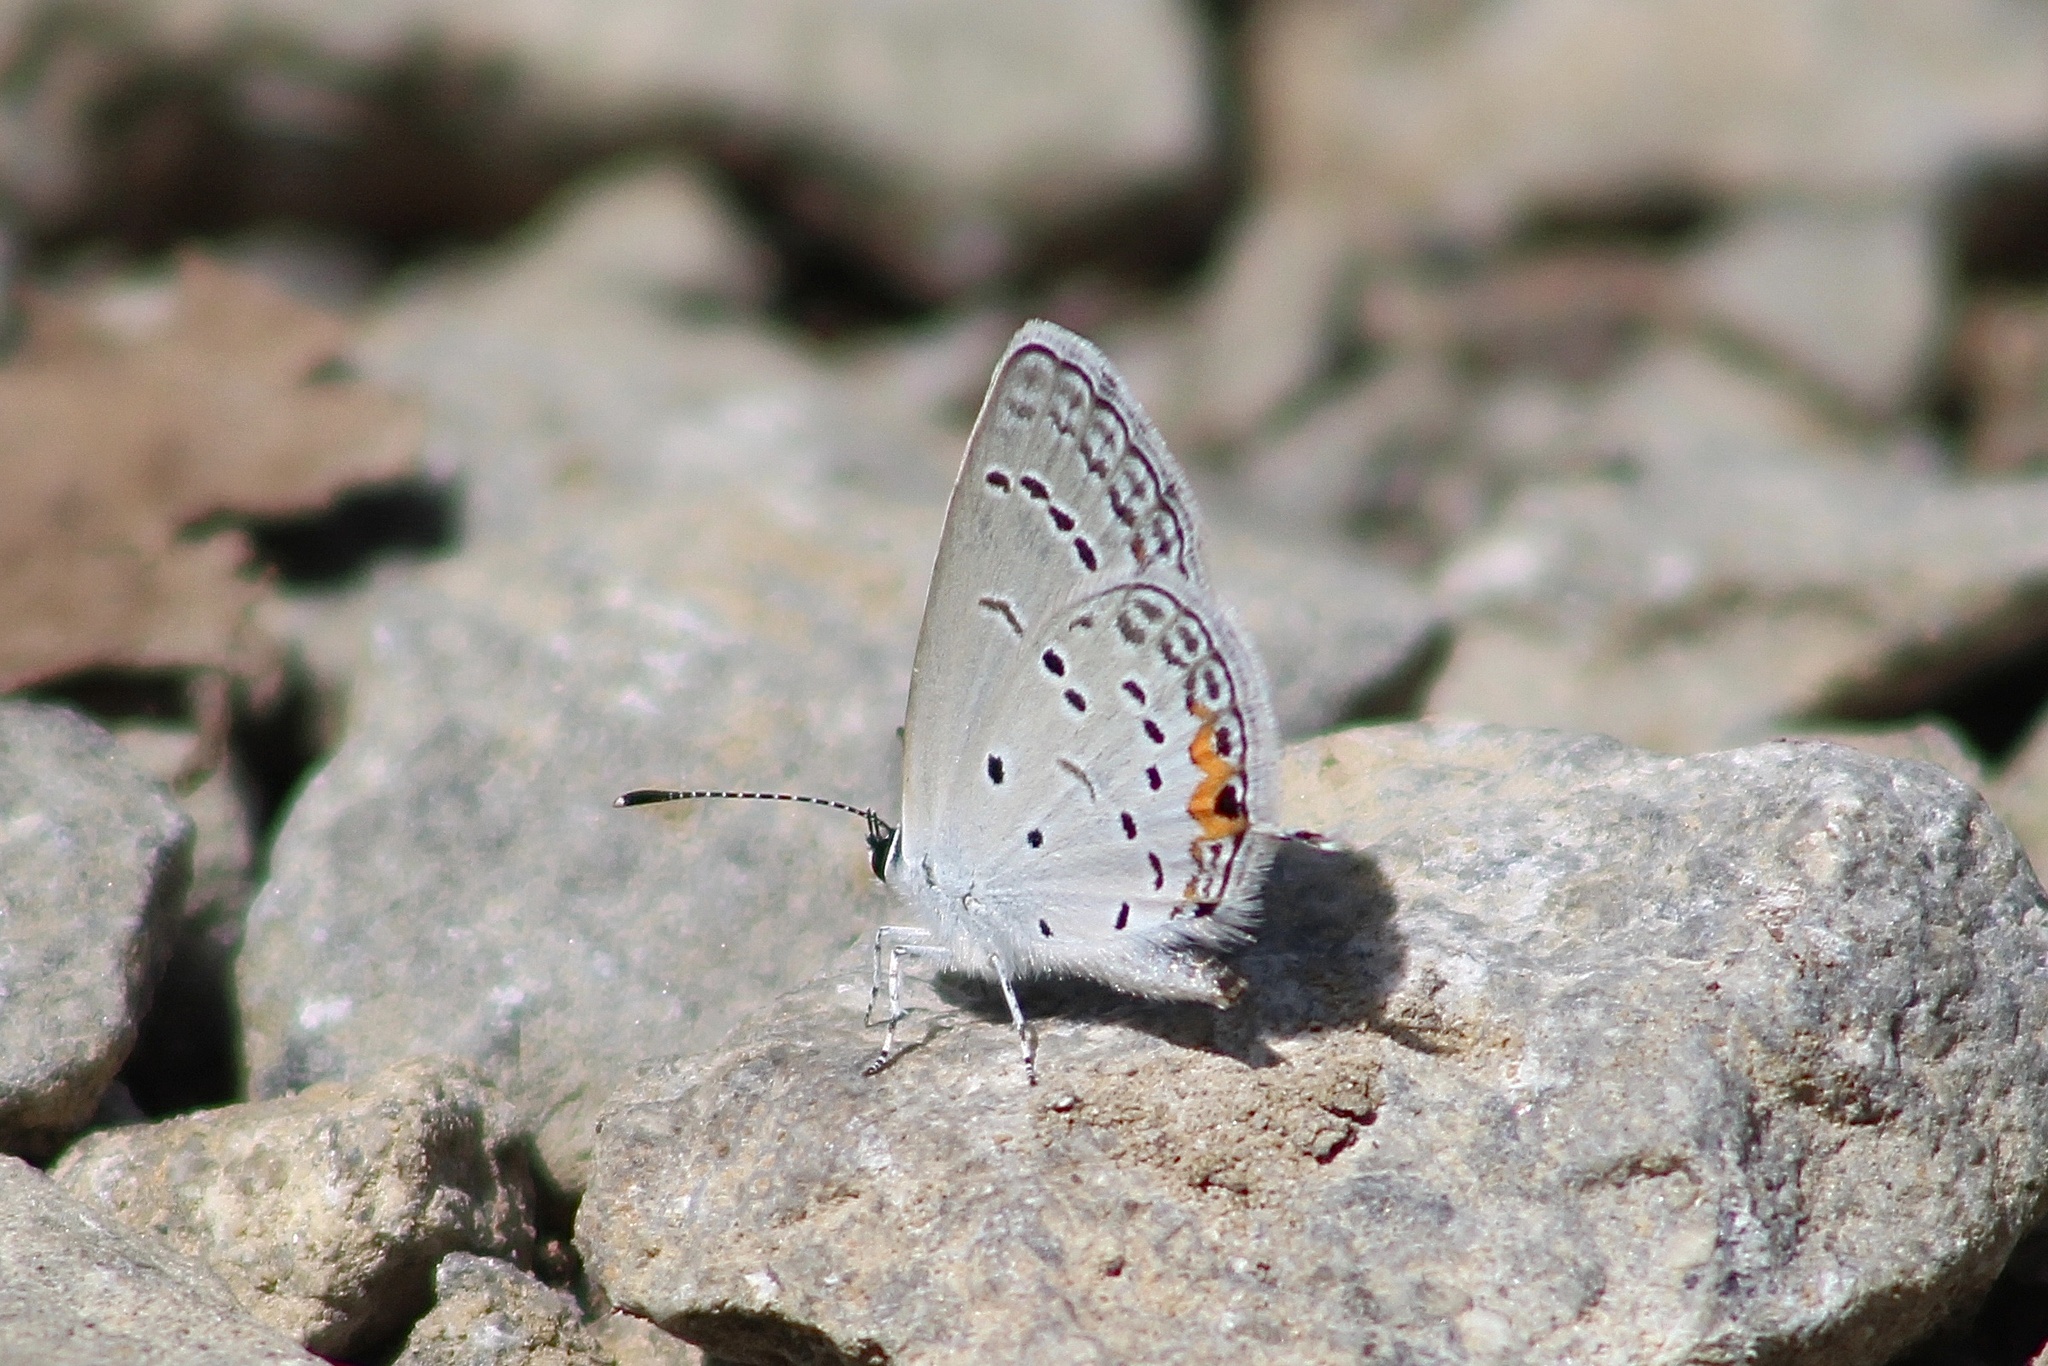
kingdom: Animalia
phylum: Arthropoda
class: Insecta
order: Lepidoptera
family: Lycaenidae
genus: Elkalyce
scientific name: Elkalyce comyntas
